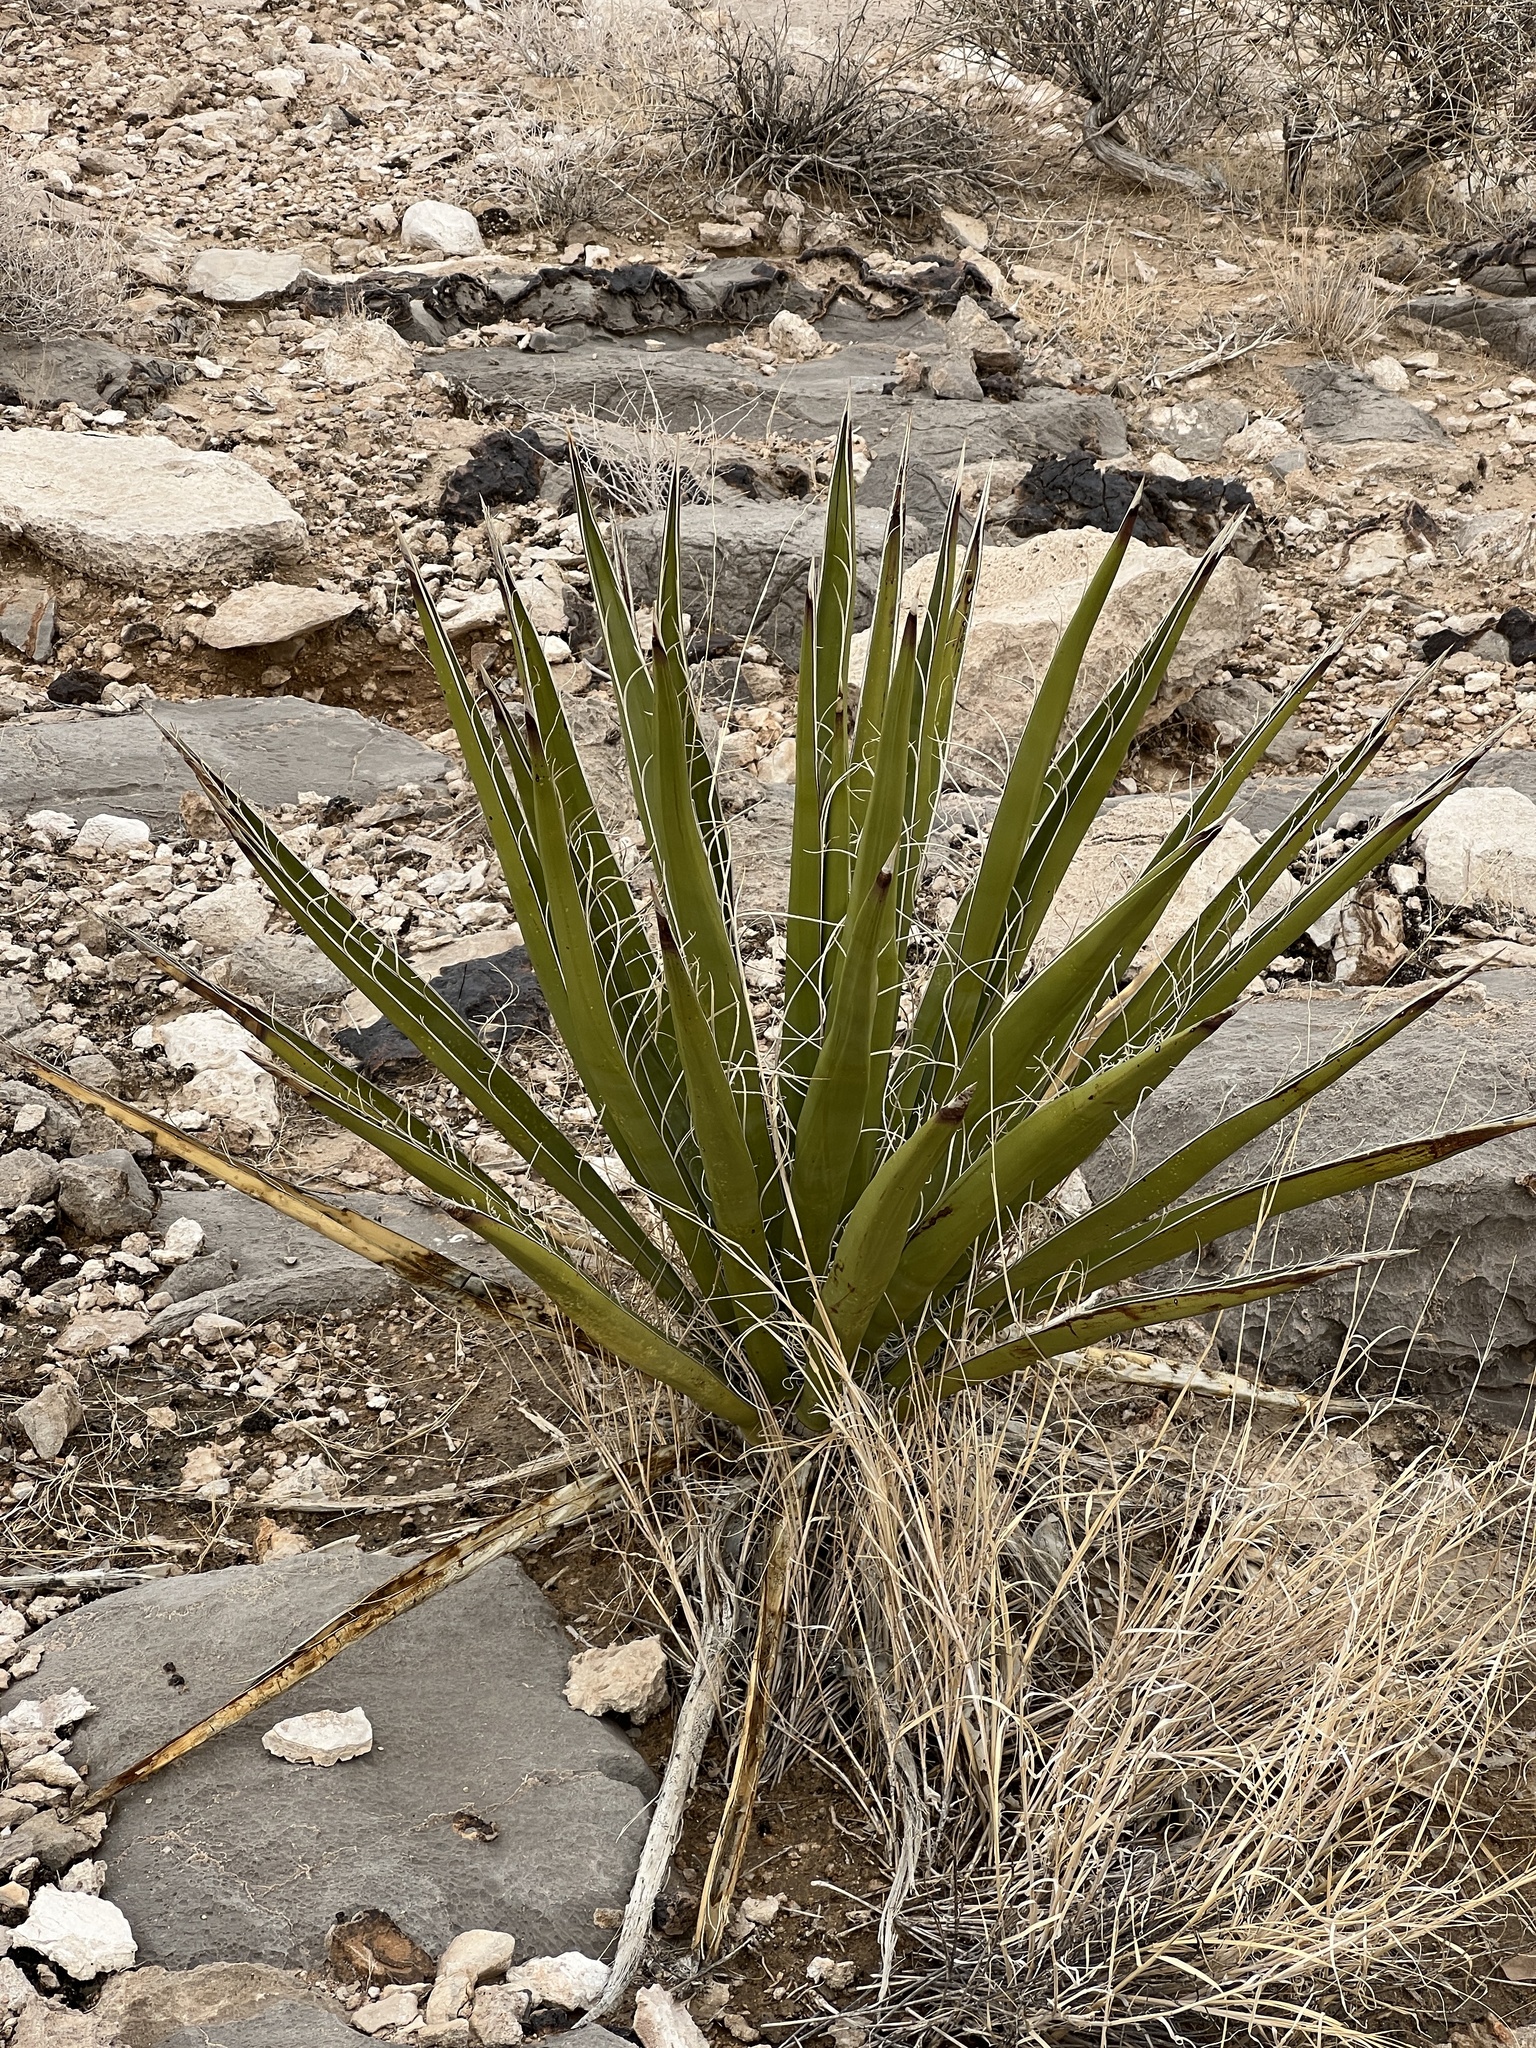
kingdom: Plantae
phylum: Tracheophyta
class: Liliopsida
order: Asparagales
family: Asparagaceae
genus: Yucca
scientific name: Yucca schidigera
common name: Mojave yucca
